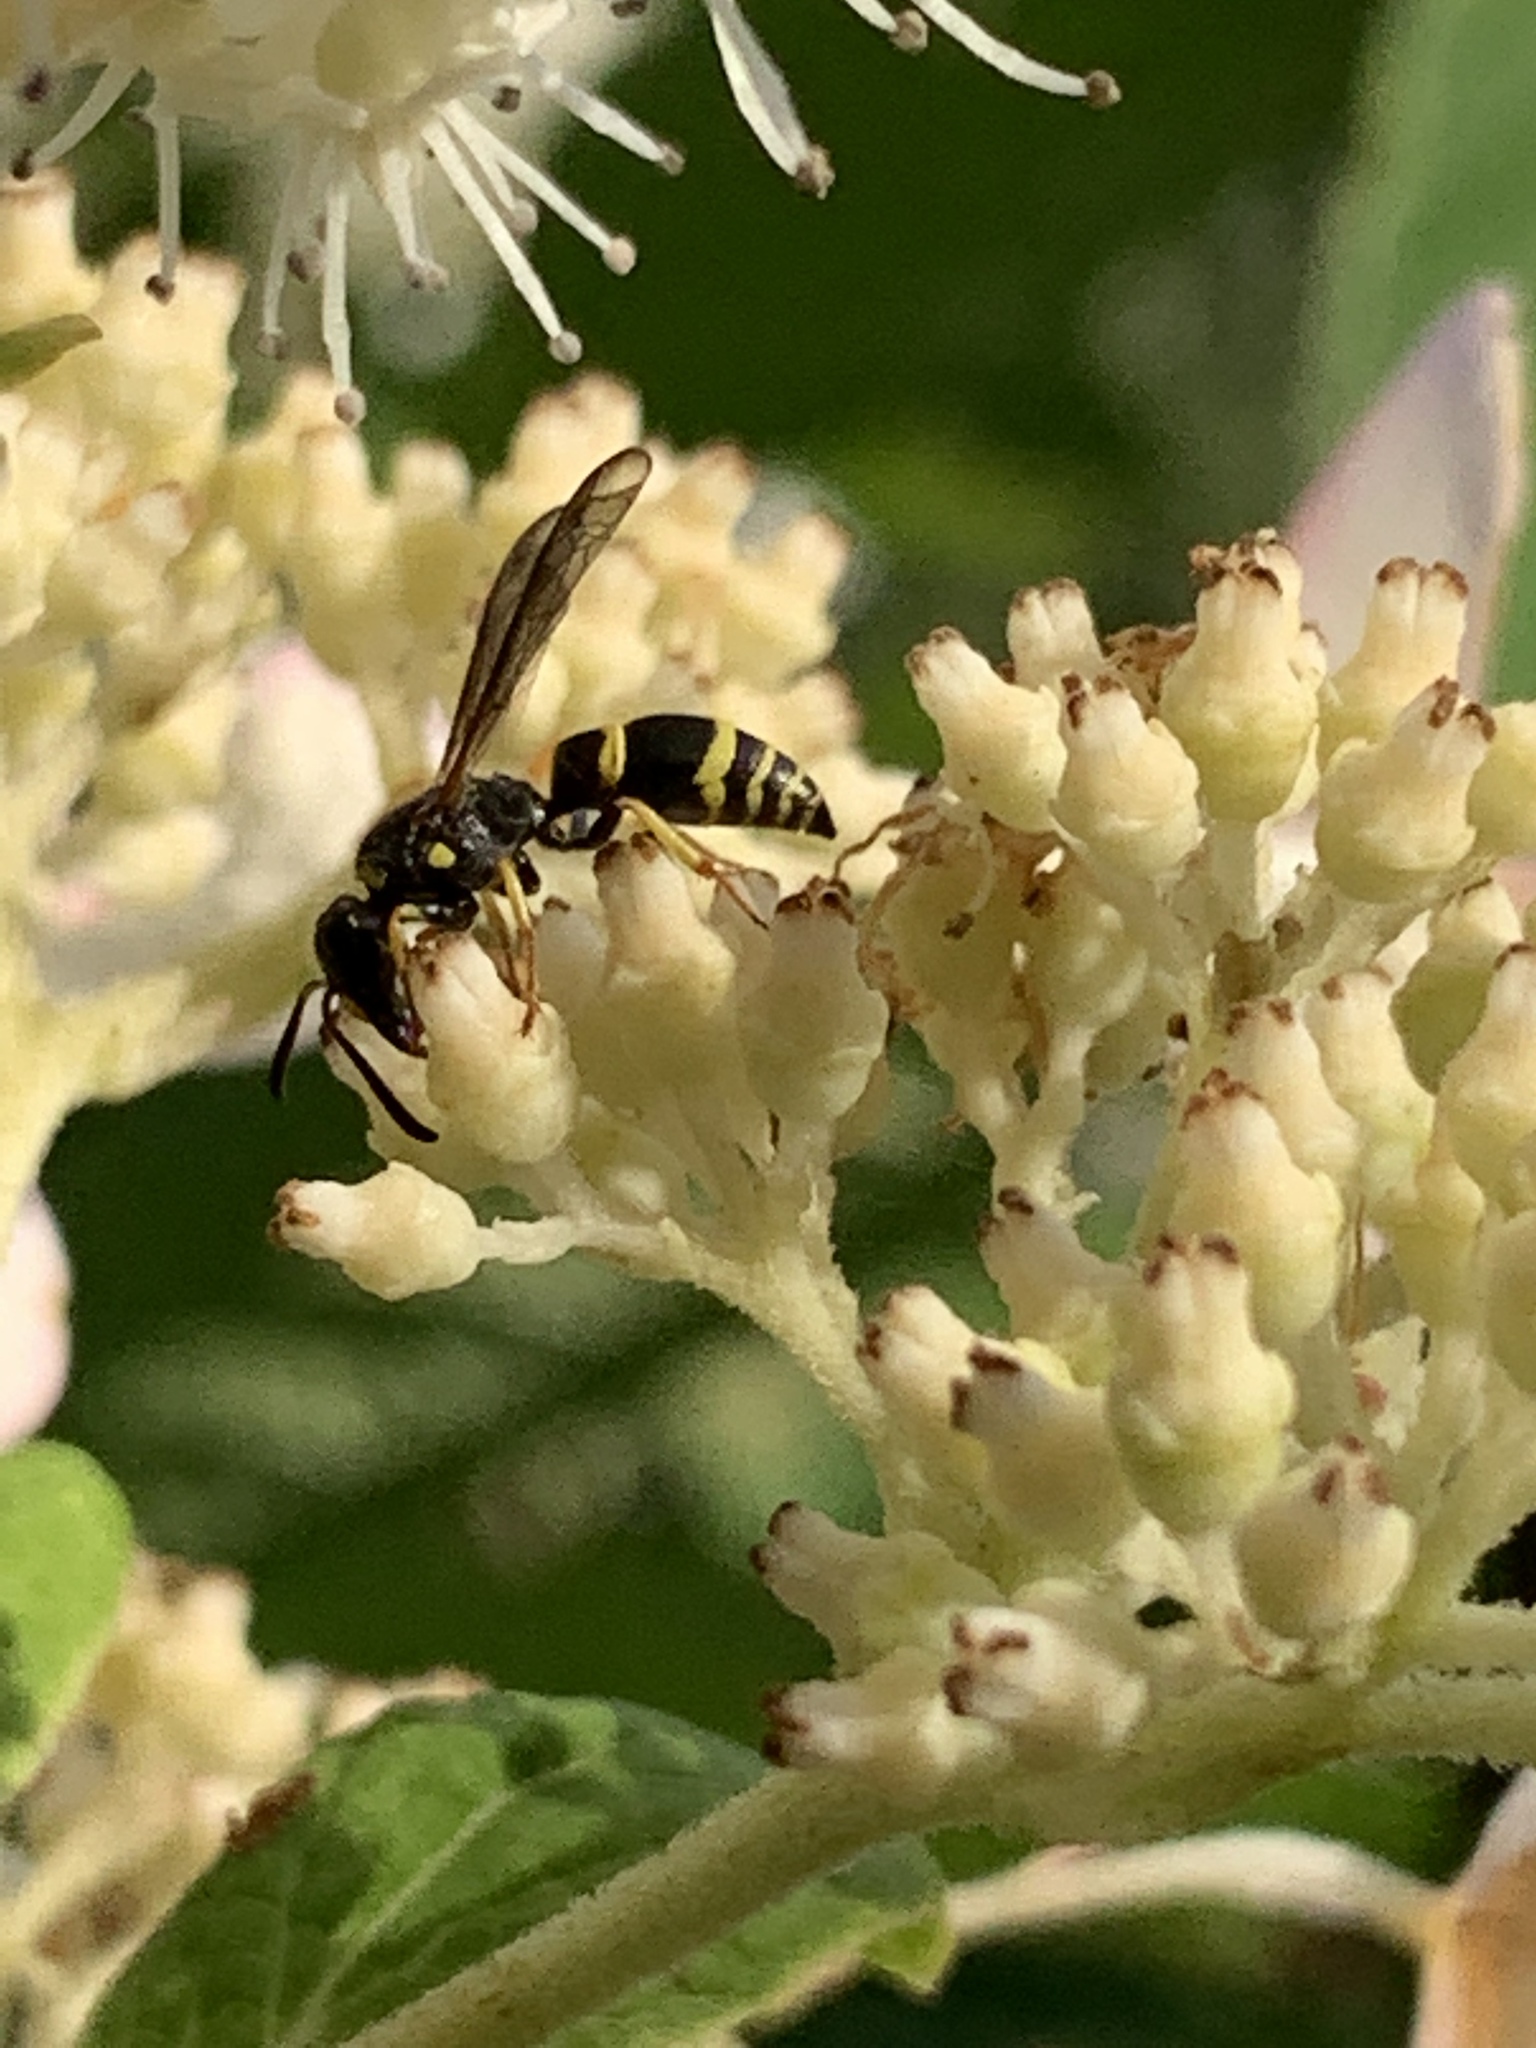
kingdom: Animalia
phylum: Arthropoda
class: Insecta
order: Hymenoptera
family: Vespidae
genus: Ancistrocerus
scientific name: Ancistrocerus
